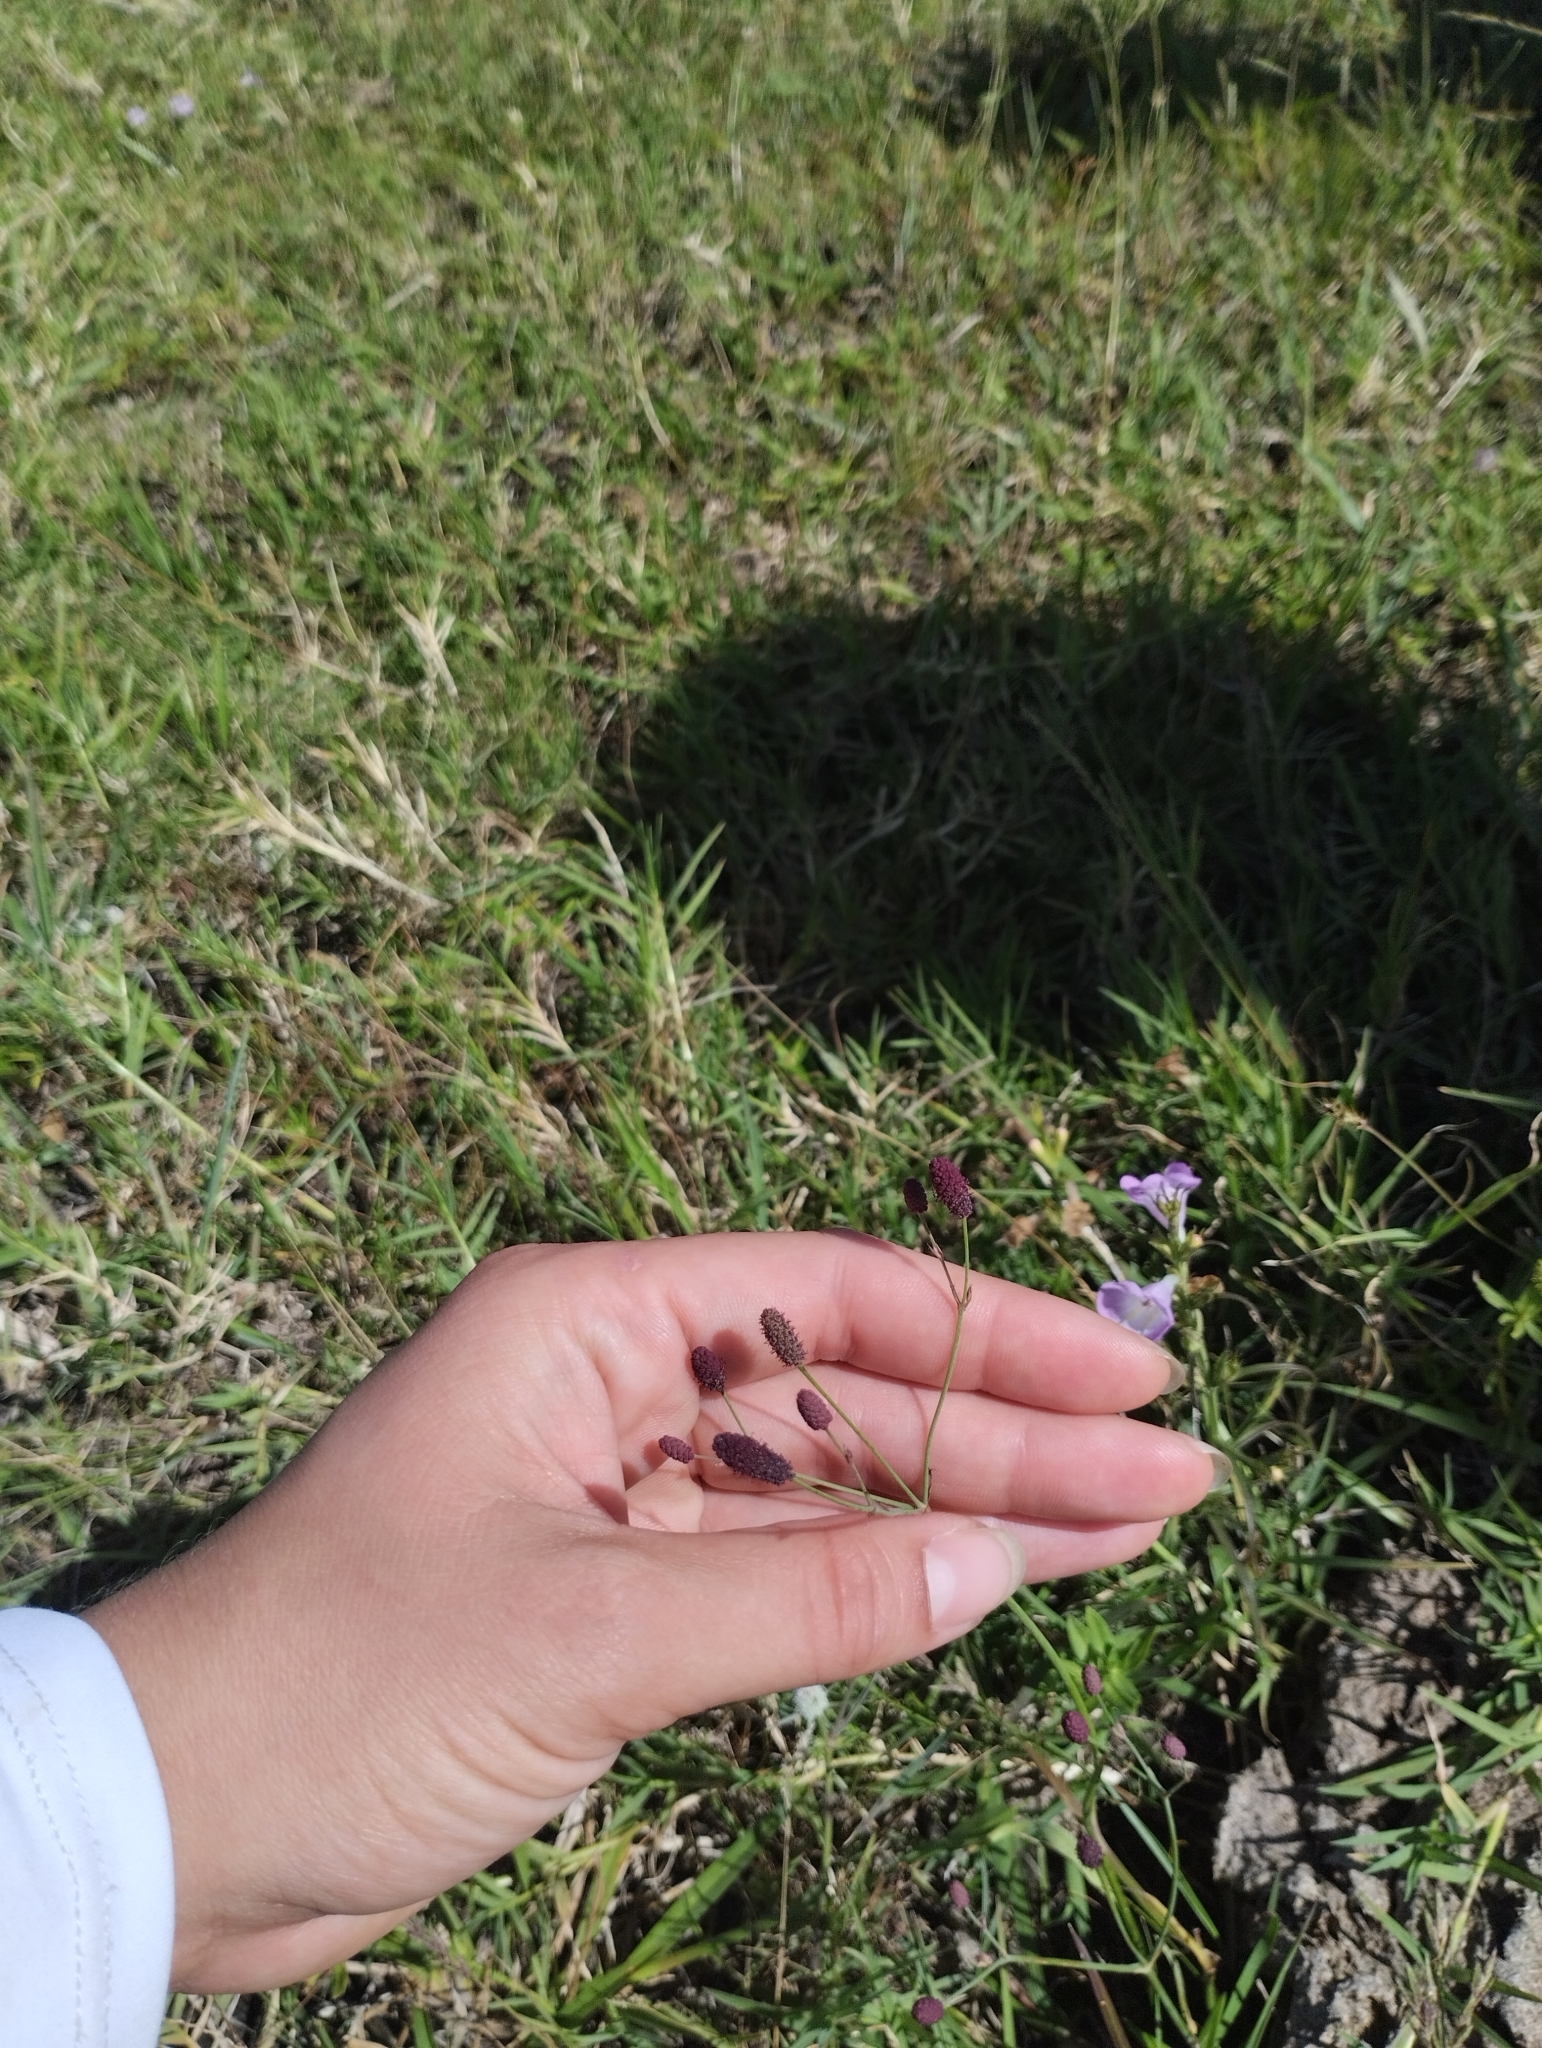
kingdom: Plantae
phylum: Tracheophyta
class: Magnoliopsida
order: Apiales
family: Apiaceae
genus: Eryngium
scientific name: Eryngium ebracteatum
